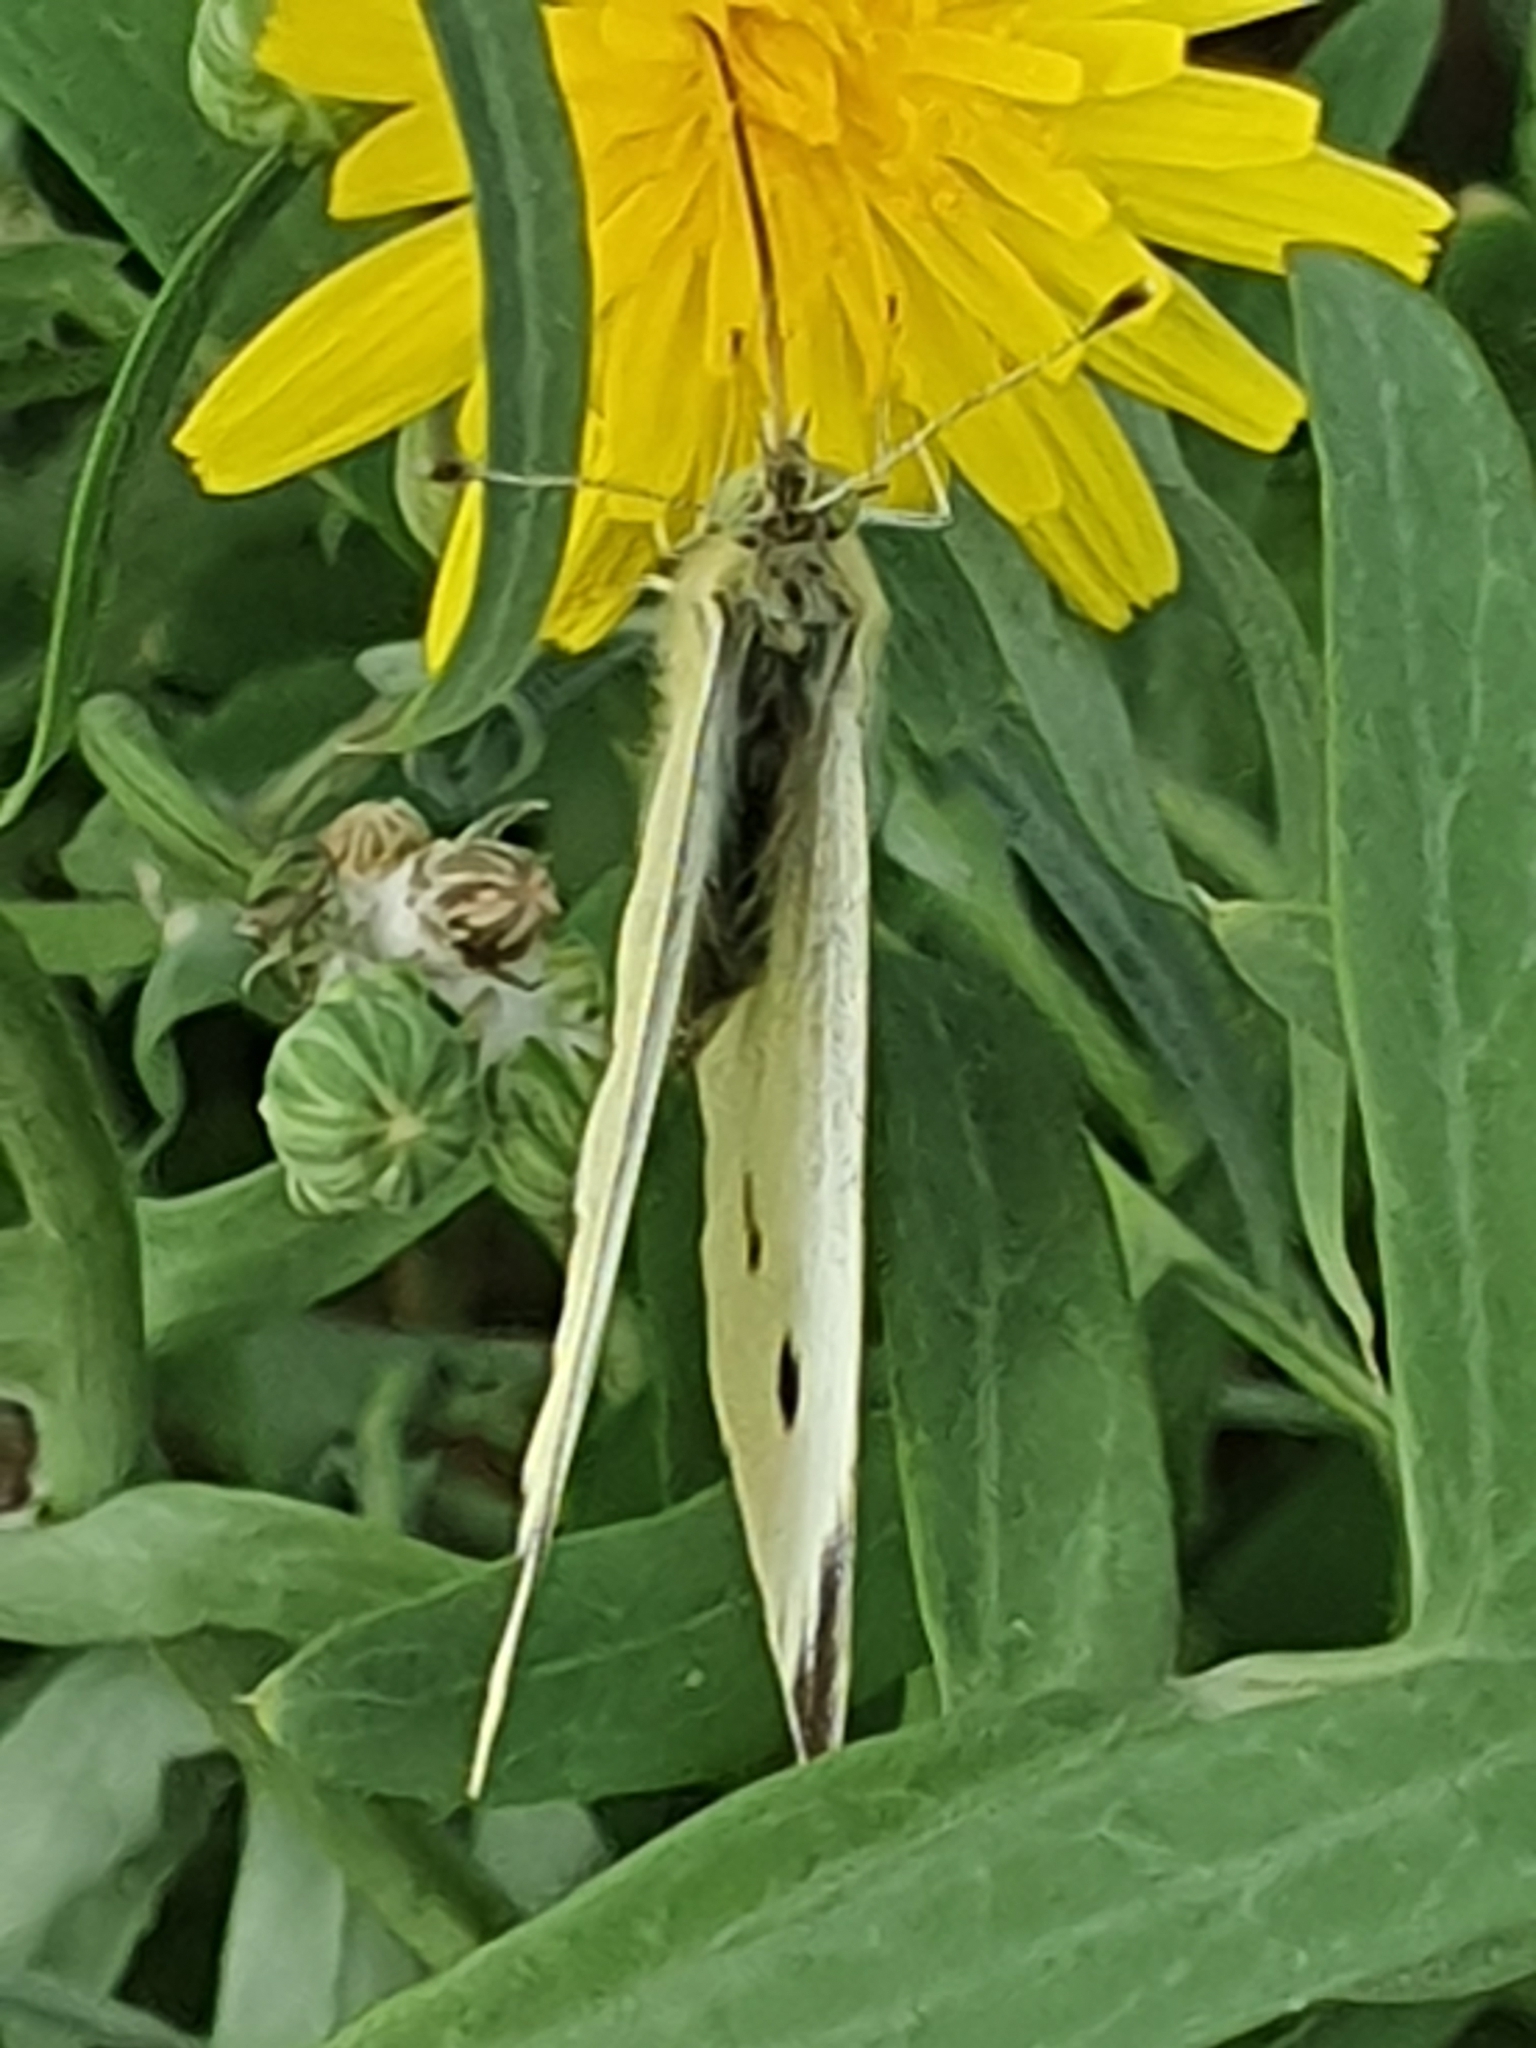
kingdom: Animalia
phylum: Arthropoda
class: Insecta
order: Lepidoptera
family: Pieridae
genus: Pieris
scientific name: Pieris rapae
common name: Small white
